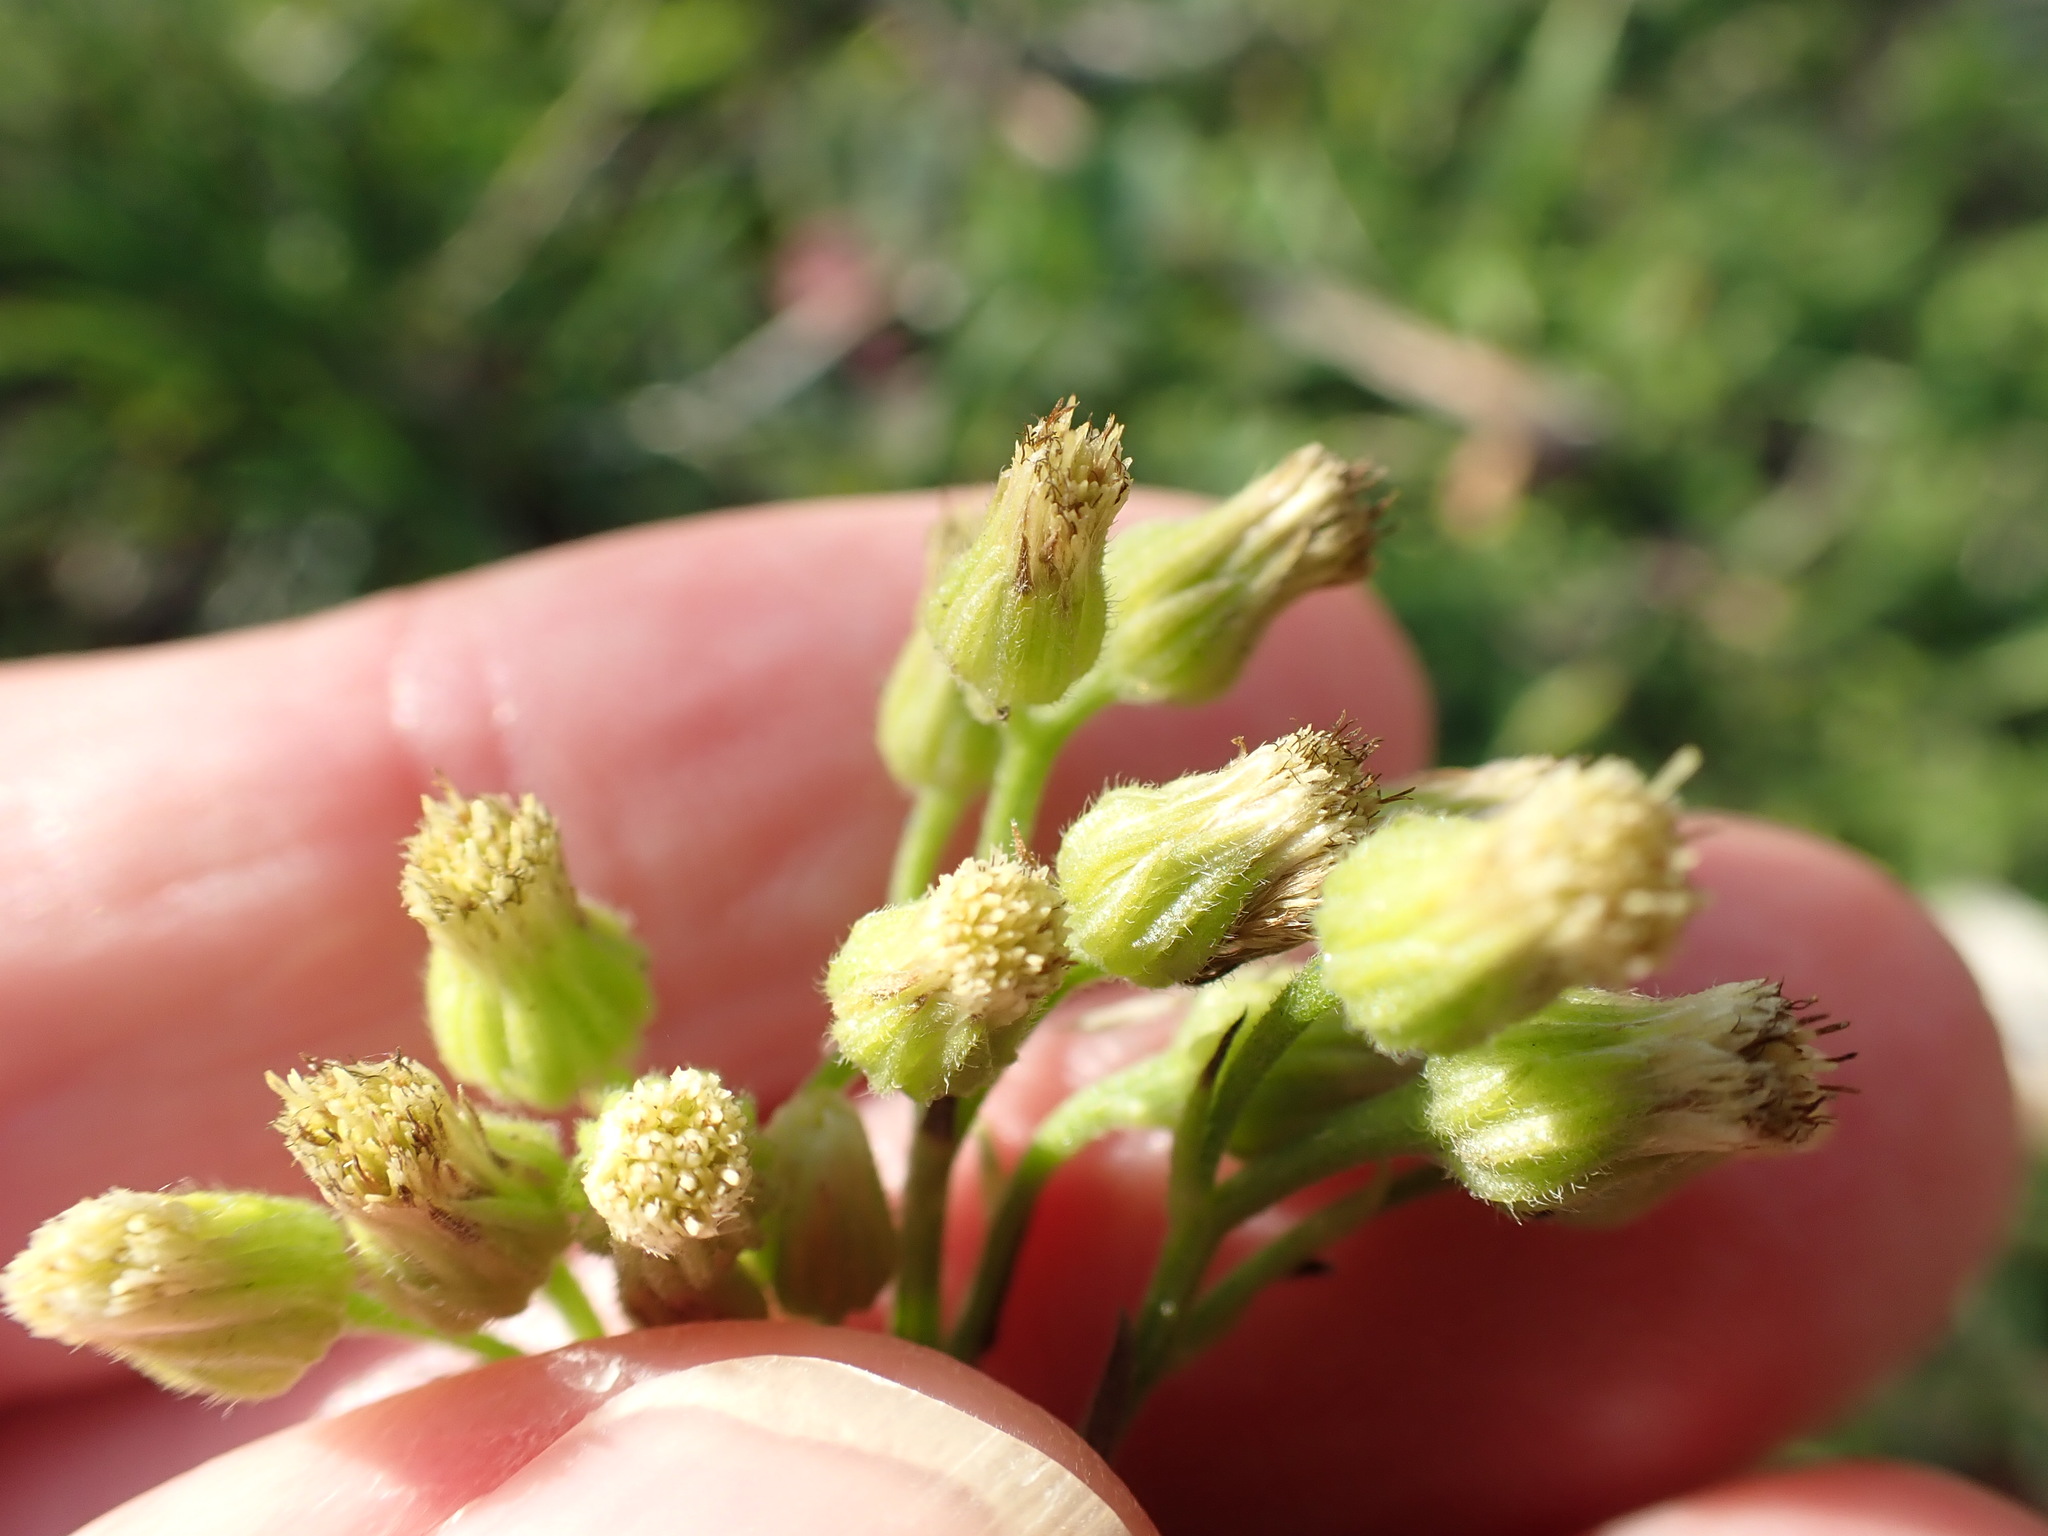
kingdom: Plantae
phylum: Tracheophyta
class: Magnoliopsida
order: Asterales
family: Asteraceae
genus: Erigeron
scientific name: Erigeron sumatrensis
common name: Daisy
